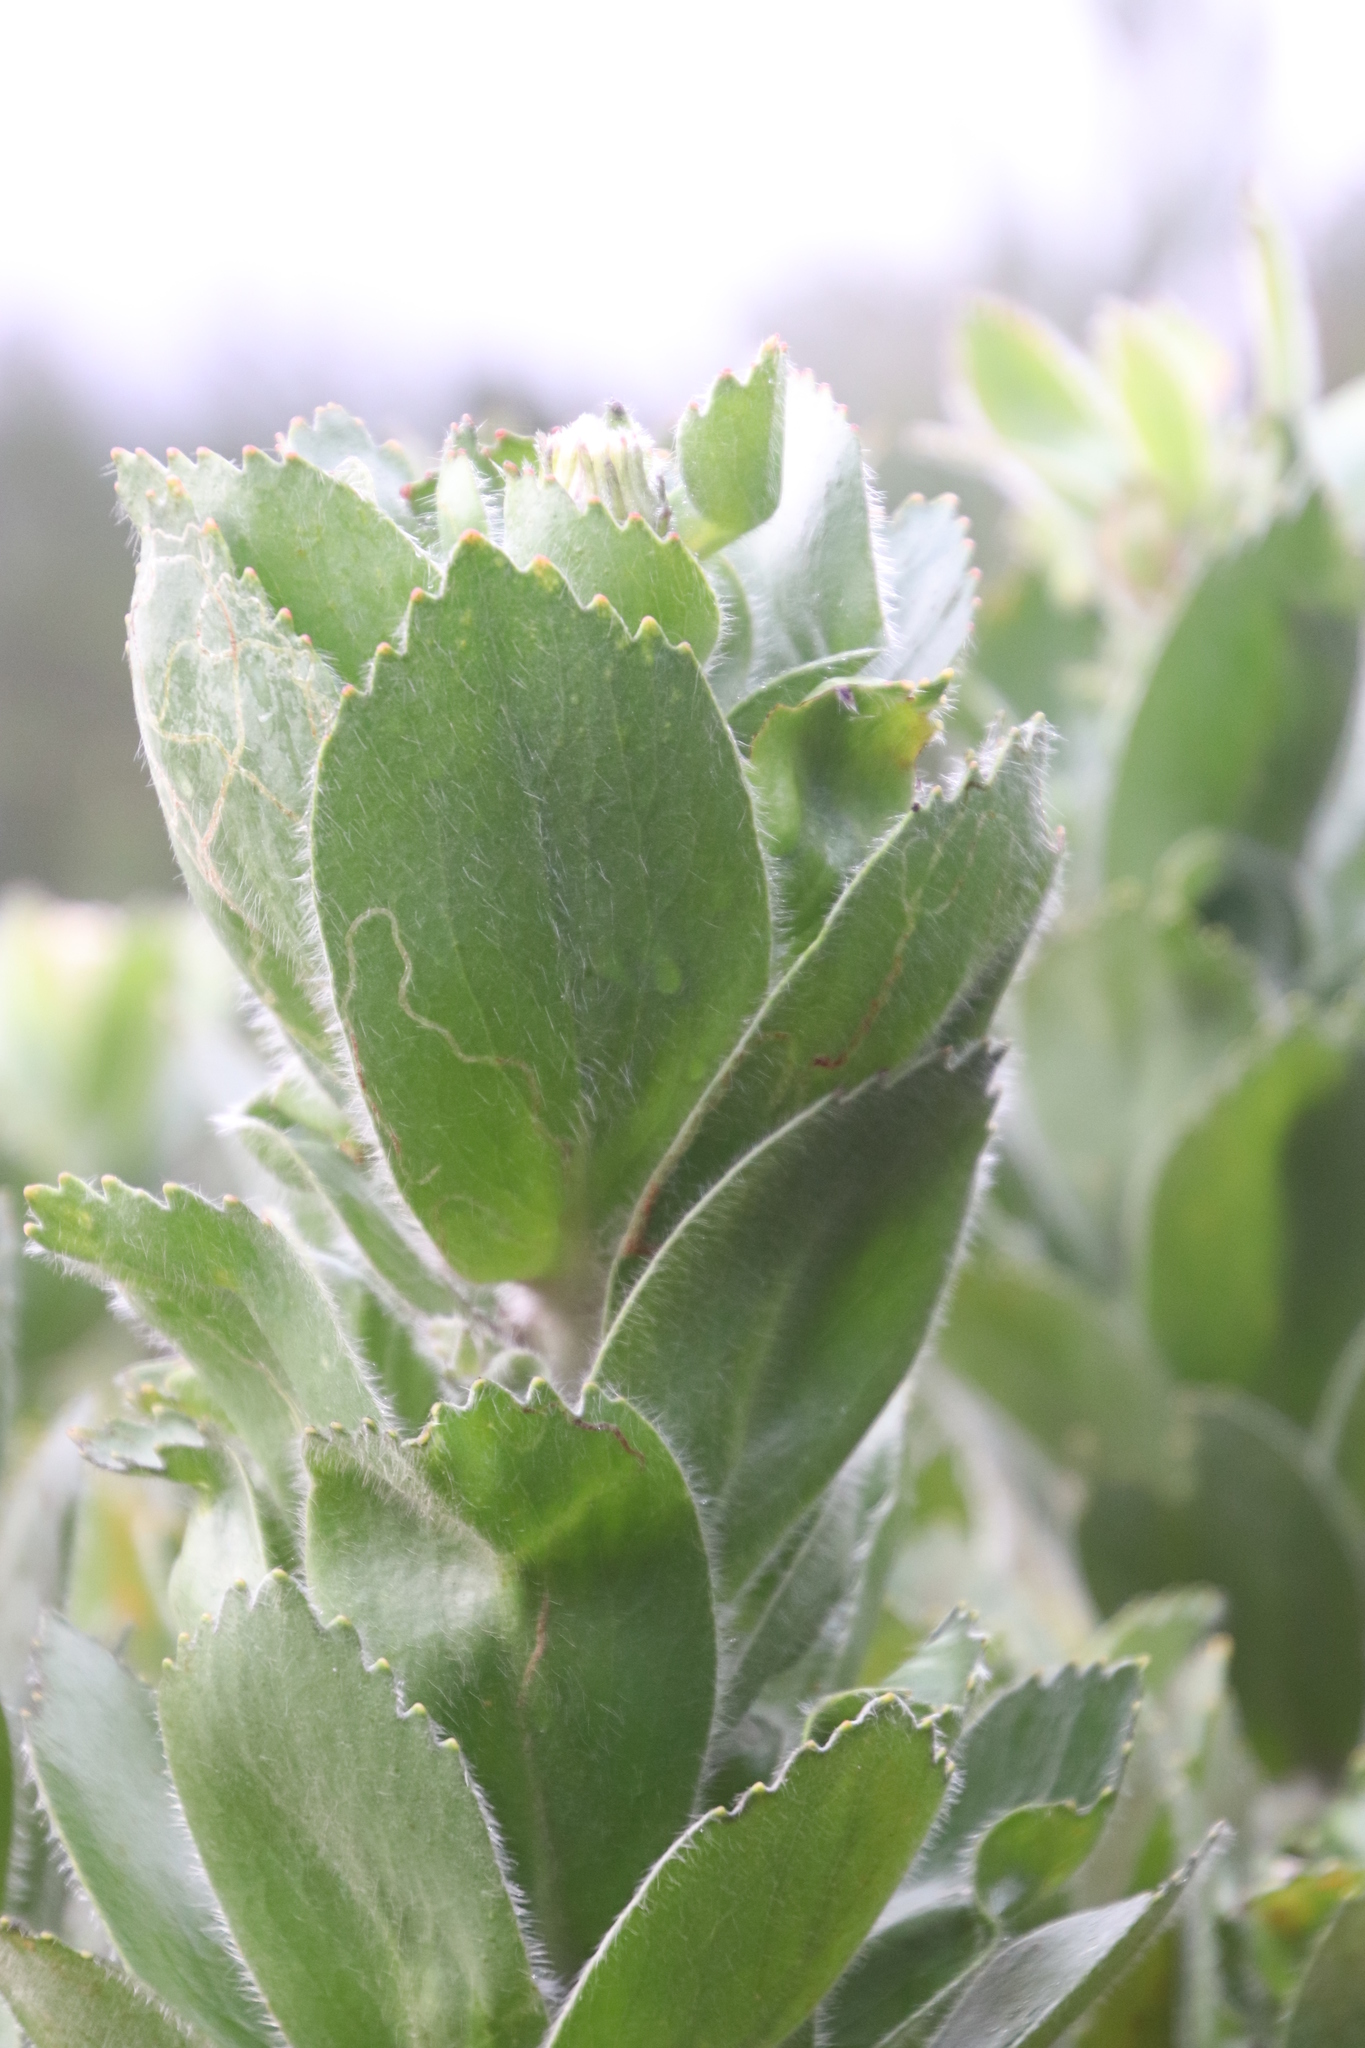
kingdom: Plantae
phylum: Tracheophyta
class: Magnoliopsida
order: Proteales
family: Proteaceae
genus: Leucospermum
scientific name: Leucospermum conocarpodendron
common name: Tree pincushion
